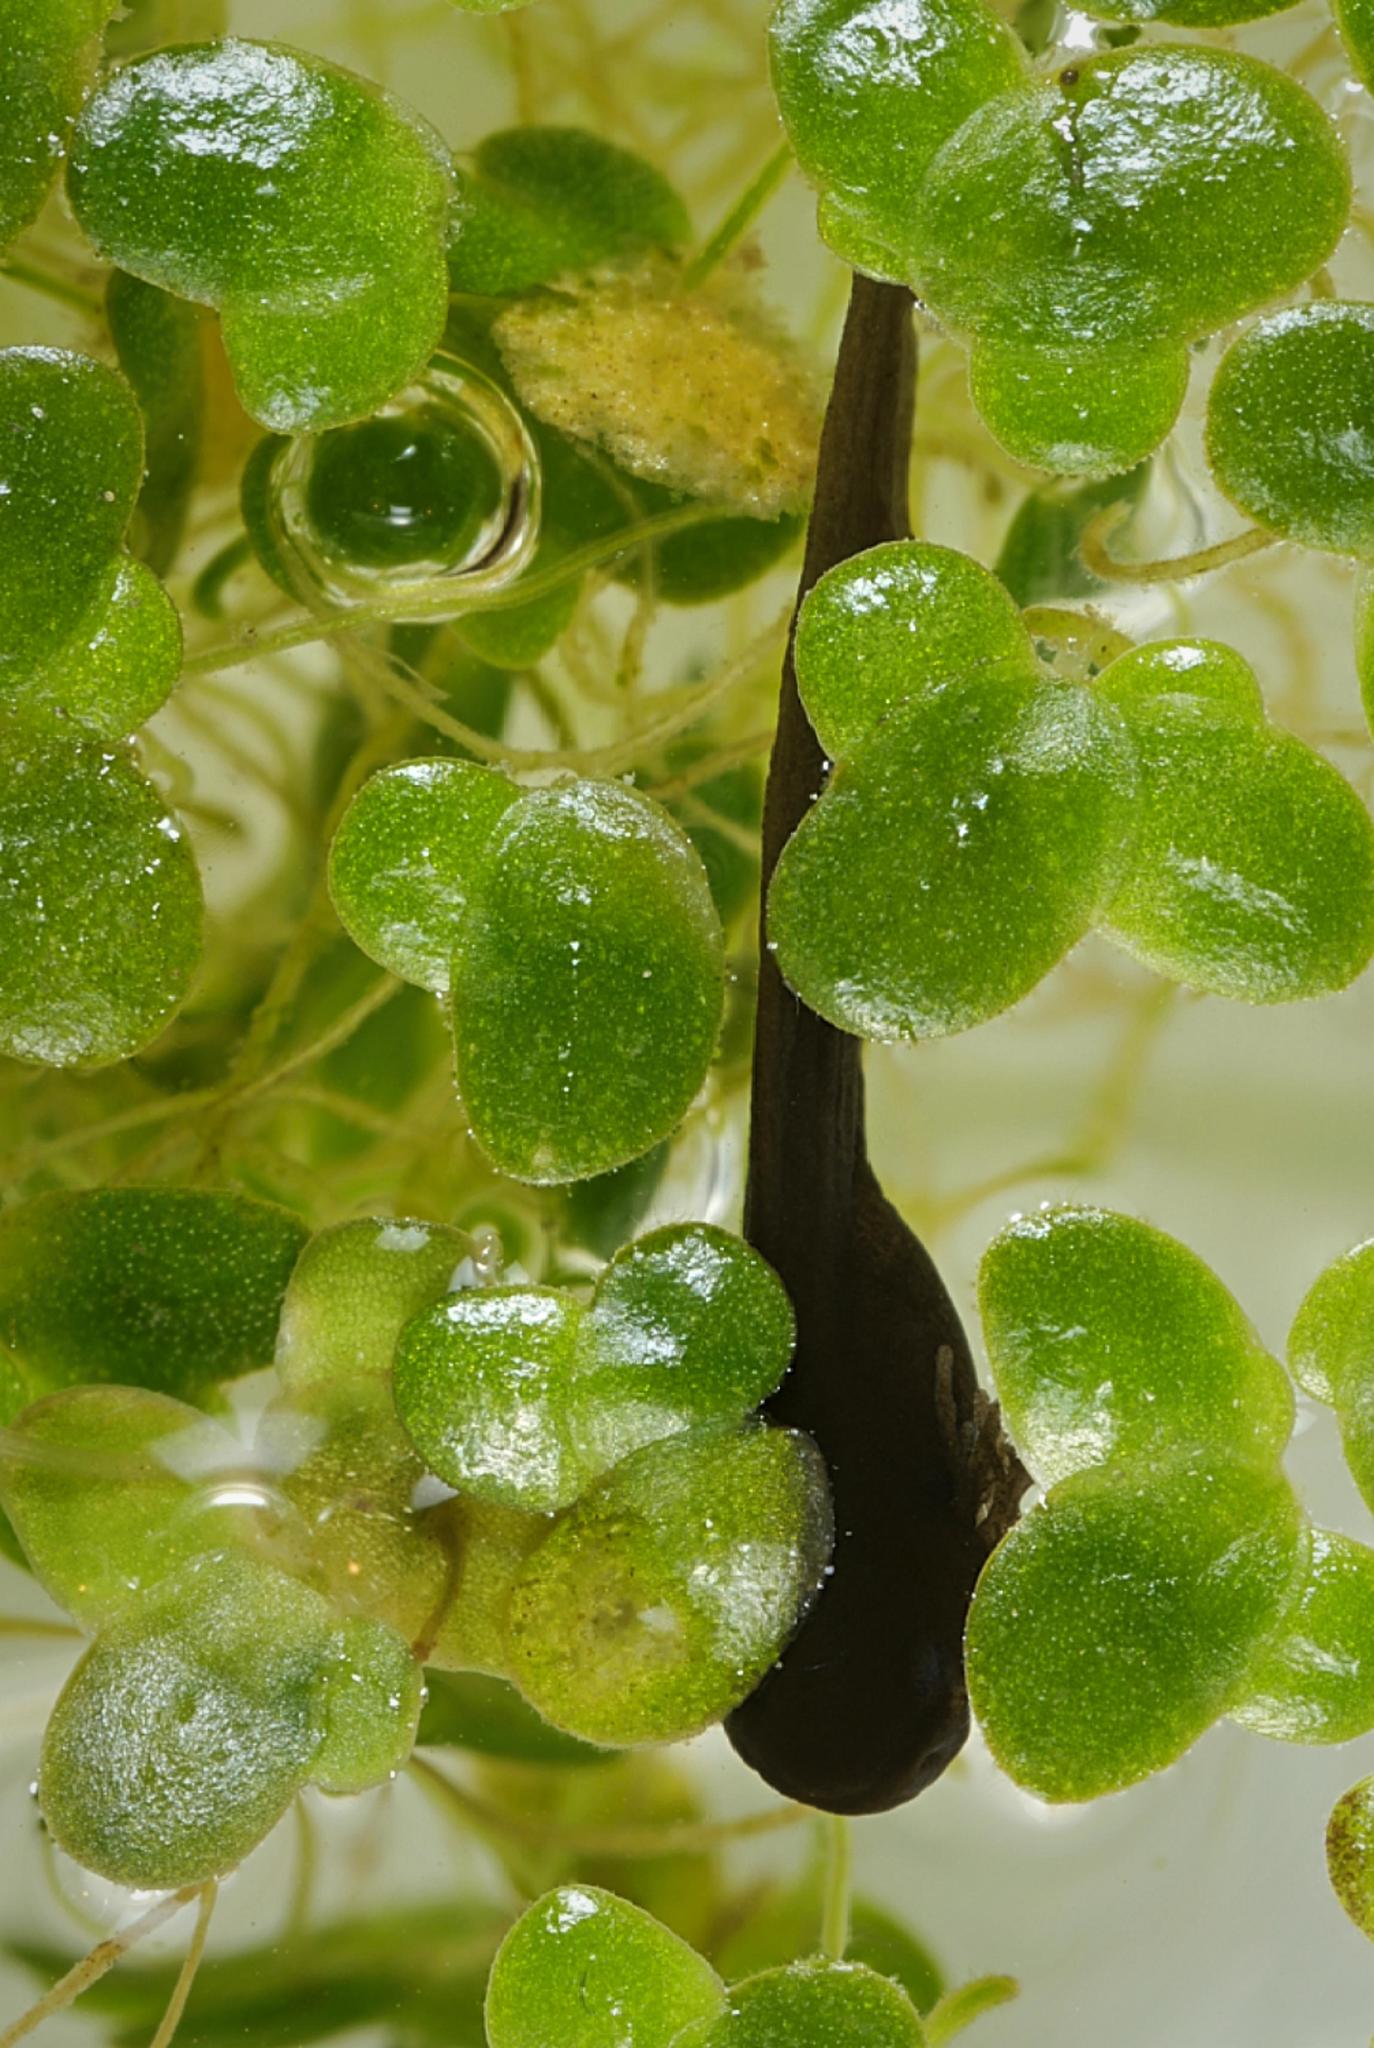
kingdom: Animalia
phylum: Chordata
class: Amphibia
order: Anura
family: Ranidae
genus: Rana
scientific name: Rana temporaria
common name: Common frog
